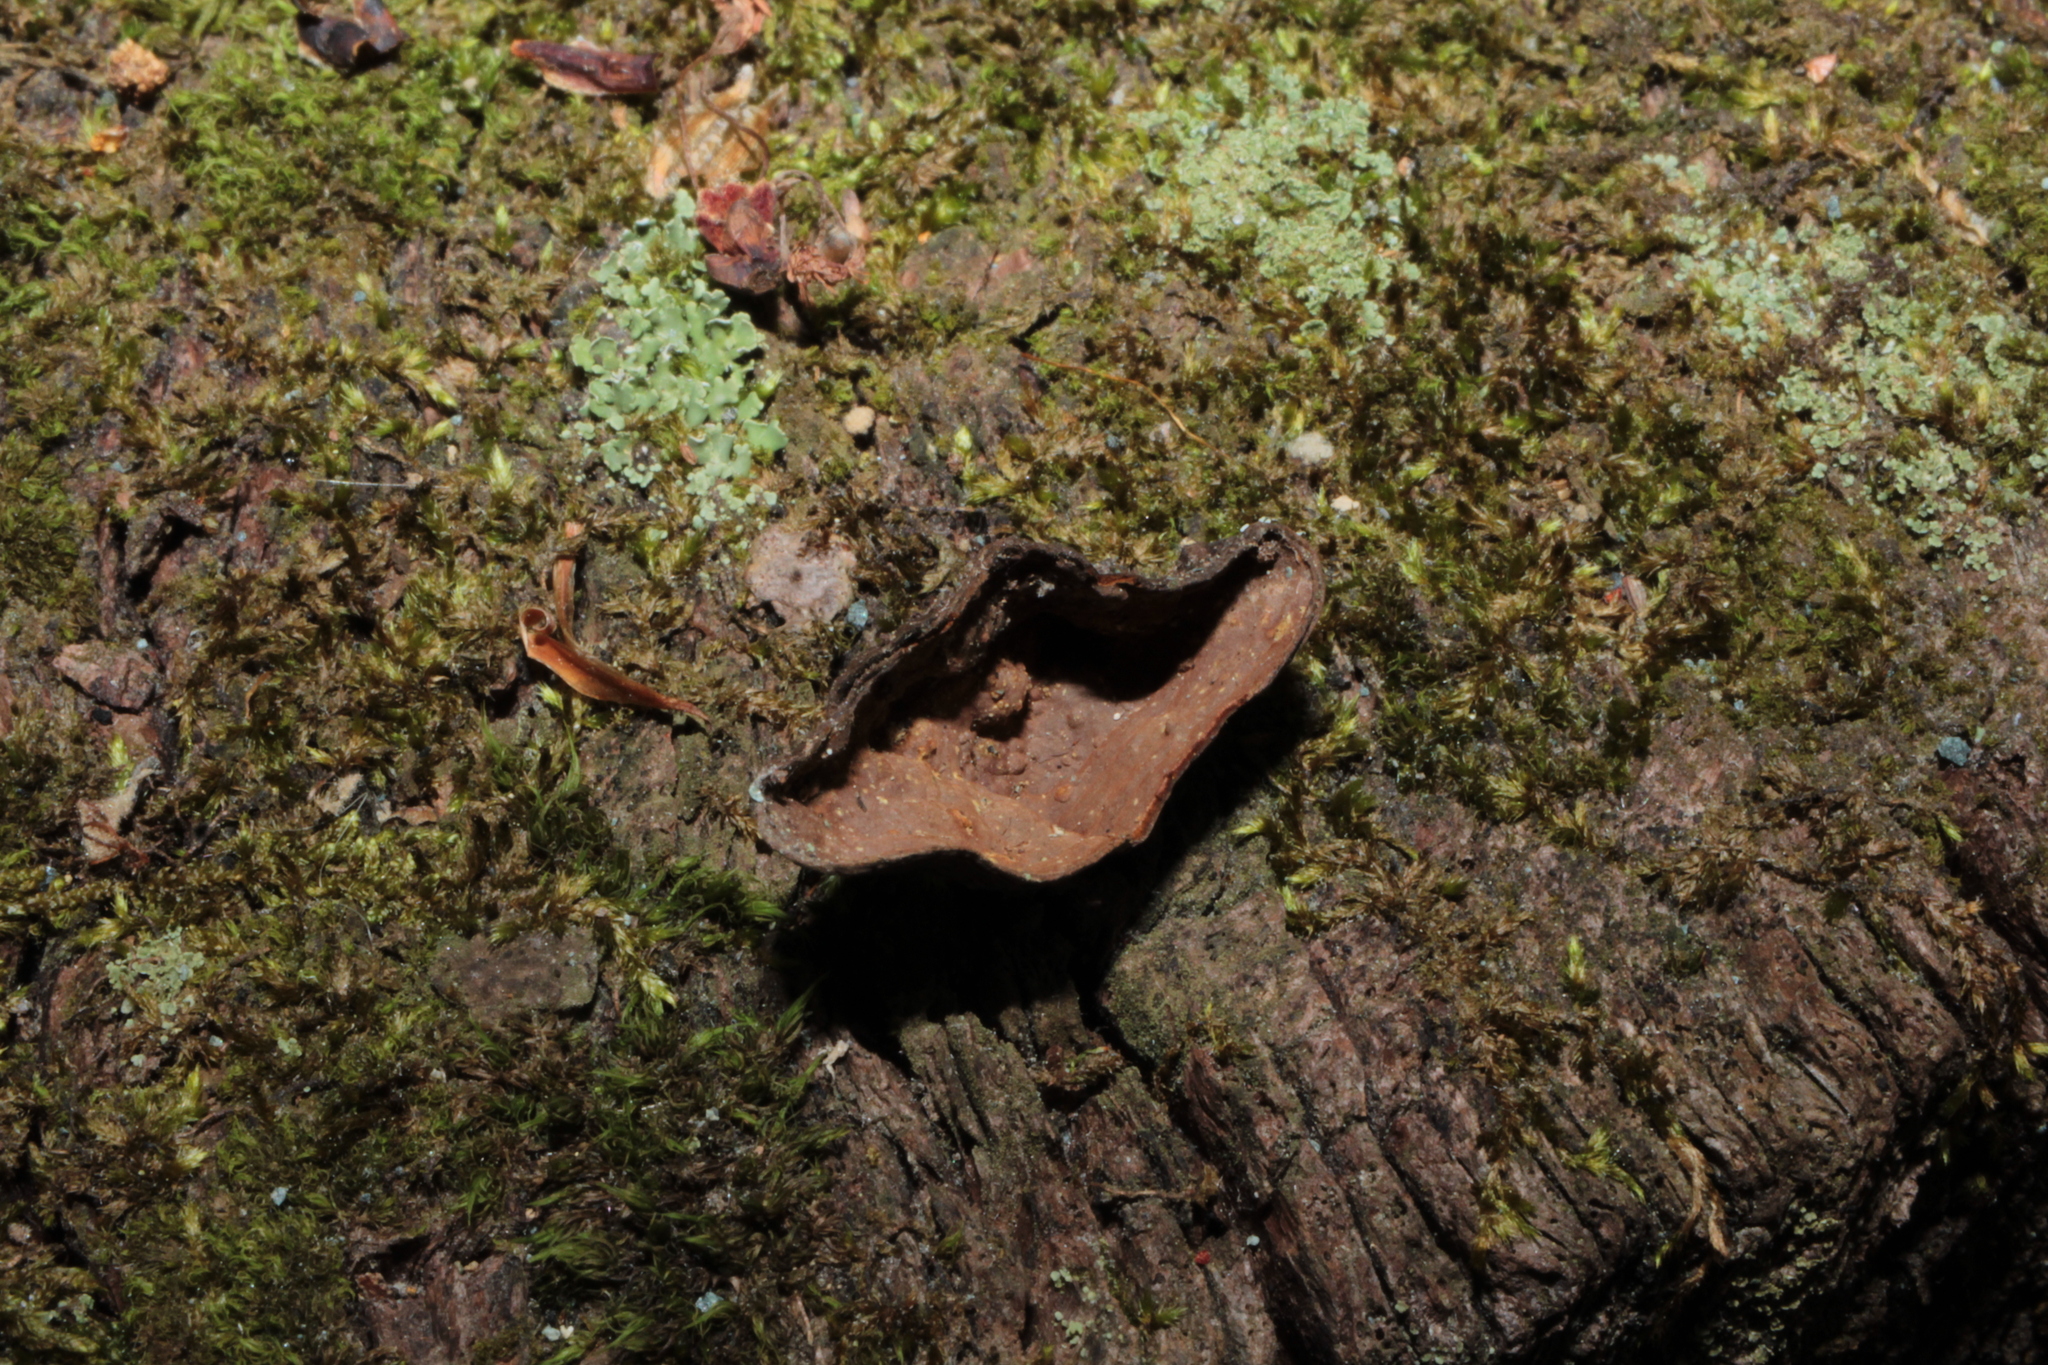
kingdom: Fungi
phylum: Basidiomycota
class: Agaricomycetes
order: Hymenochaetales
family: Hymenochaetaceae
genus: Hymenochaete
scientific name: Hymenochaete rubiginosa
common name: Oak curtain crust
